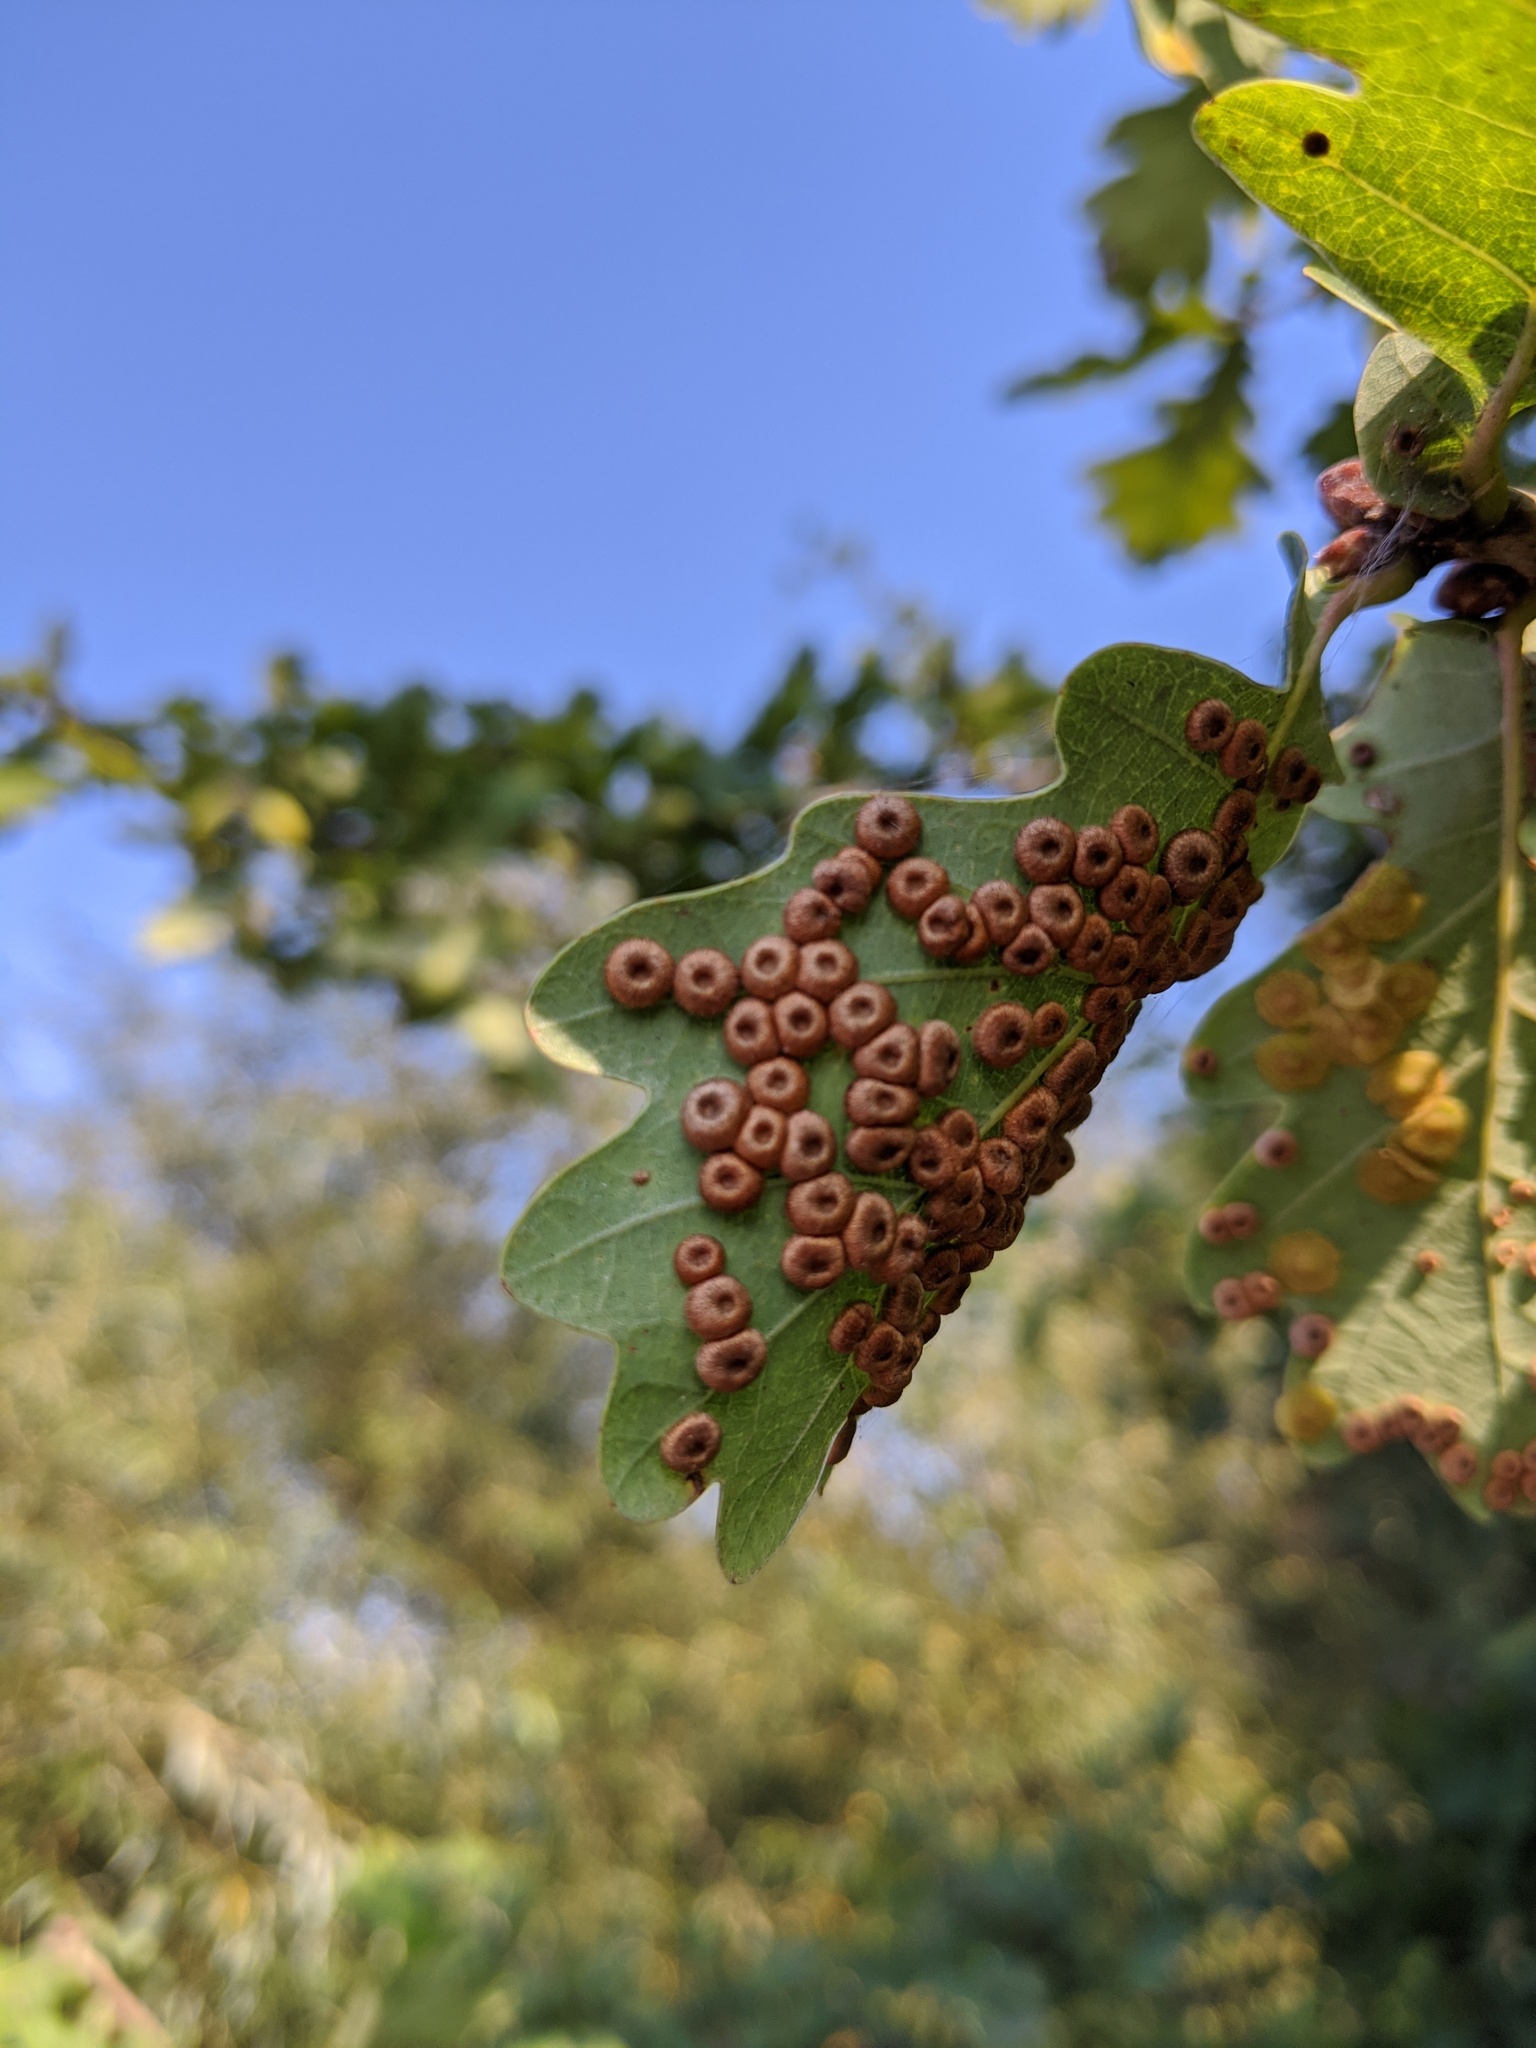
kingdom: Animalia
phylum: Arthropoda
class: Insecta
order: Hymenoptera
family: Cynipidae
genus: Neuroterus
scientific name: Neuroterus numismalis
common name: Silk-button spangle gall
